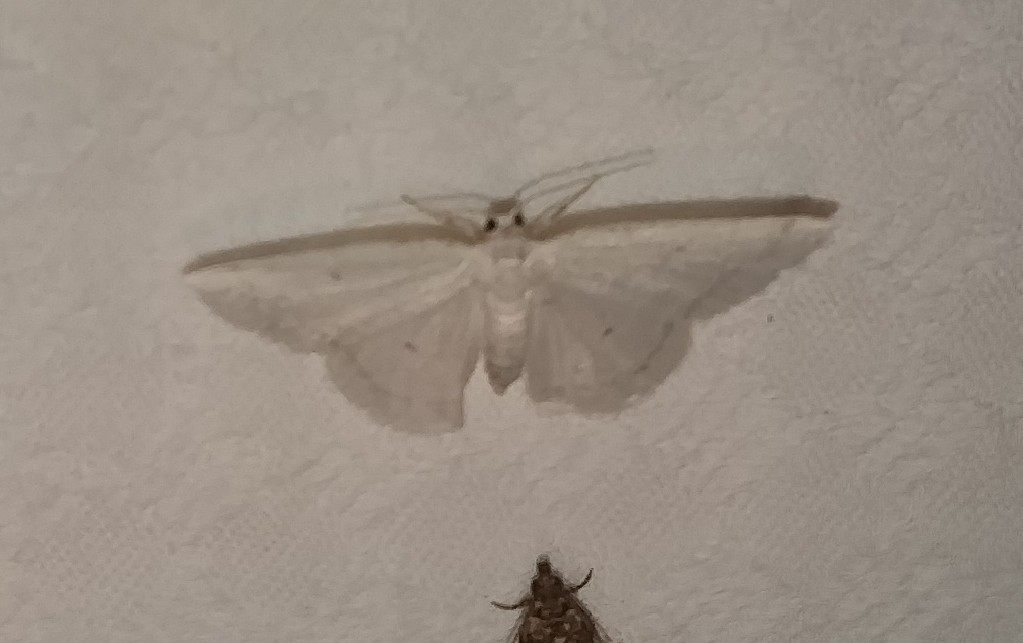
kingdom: Animalia
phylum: Arthropoda
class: Insecta
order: Lepidoptera
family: Geometridae
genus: Protitame
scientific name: Protitame virginalis
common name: Virgin moth
